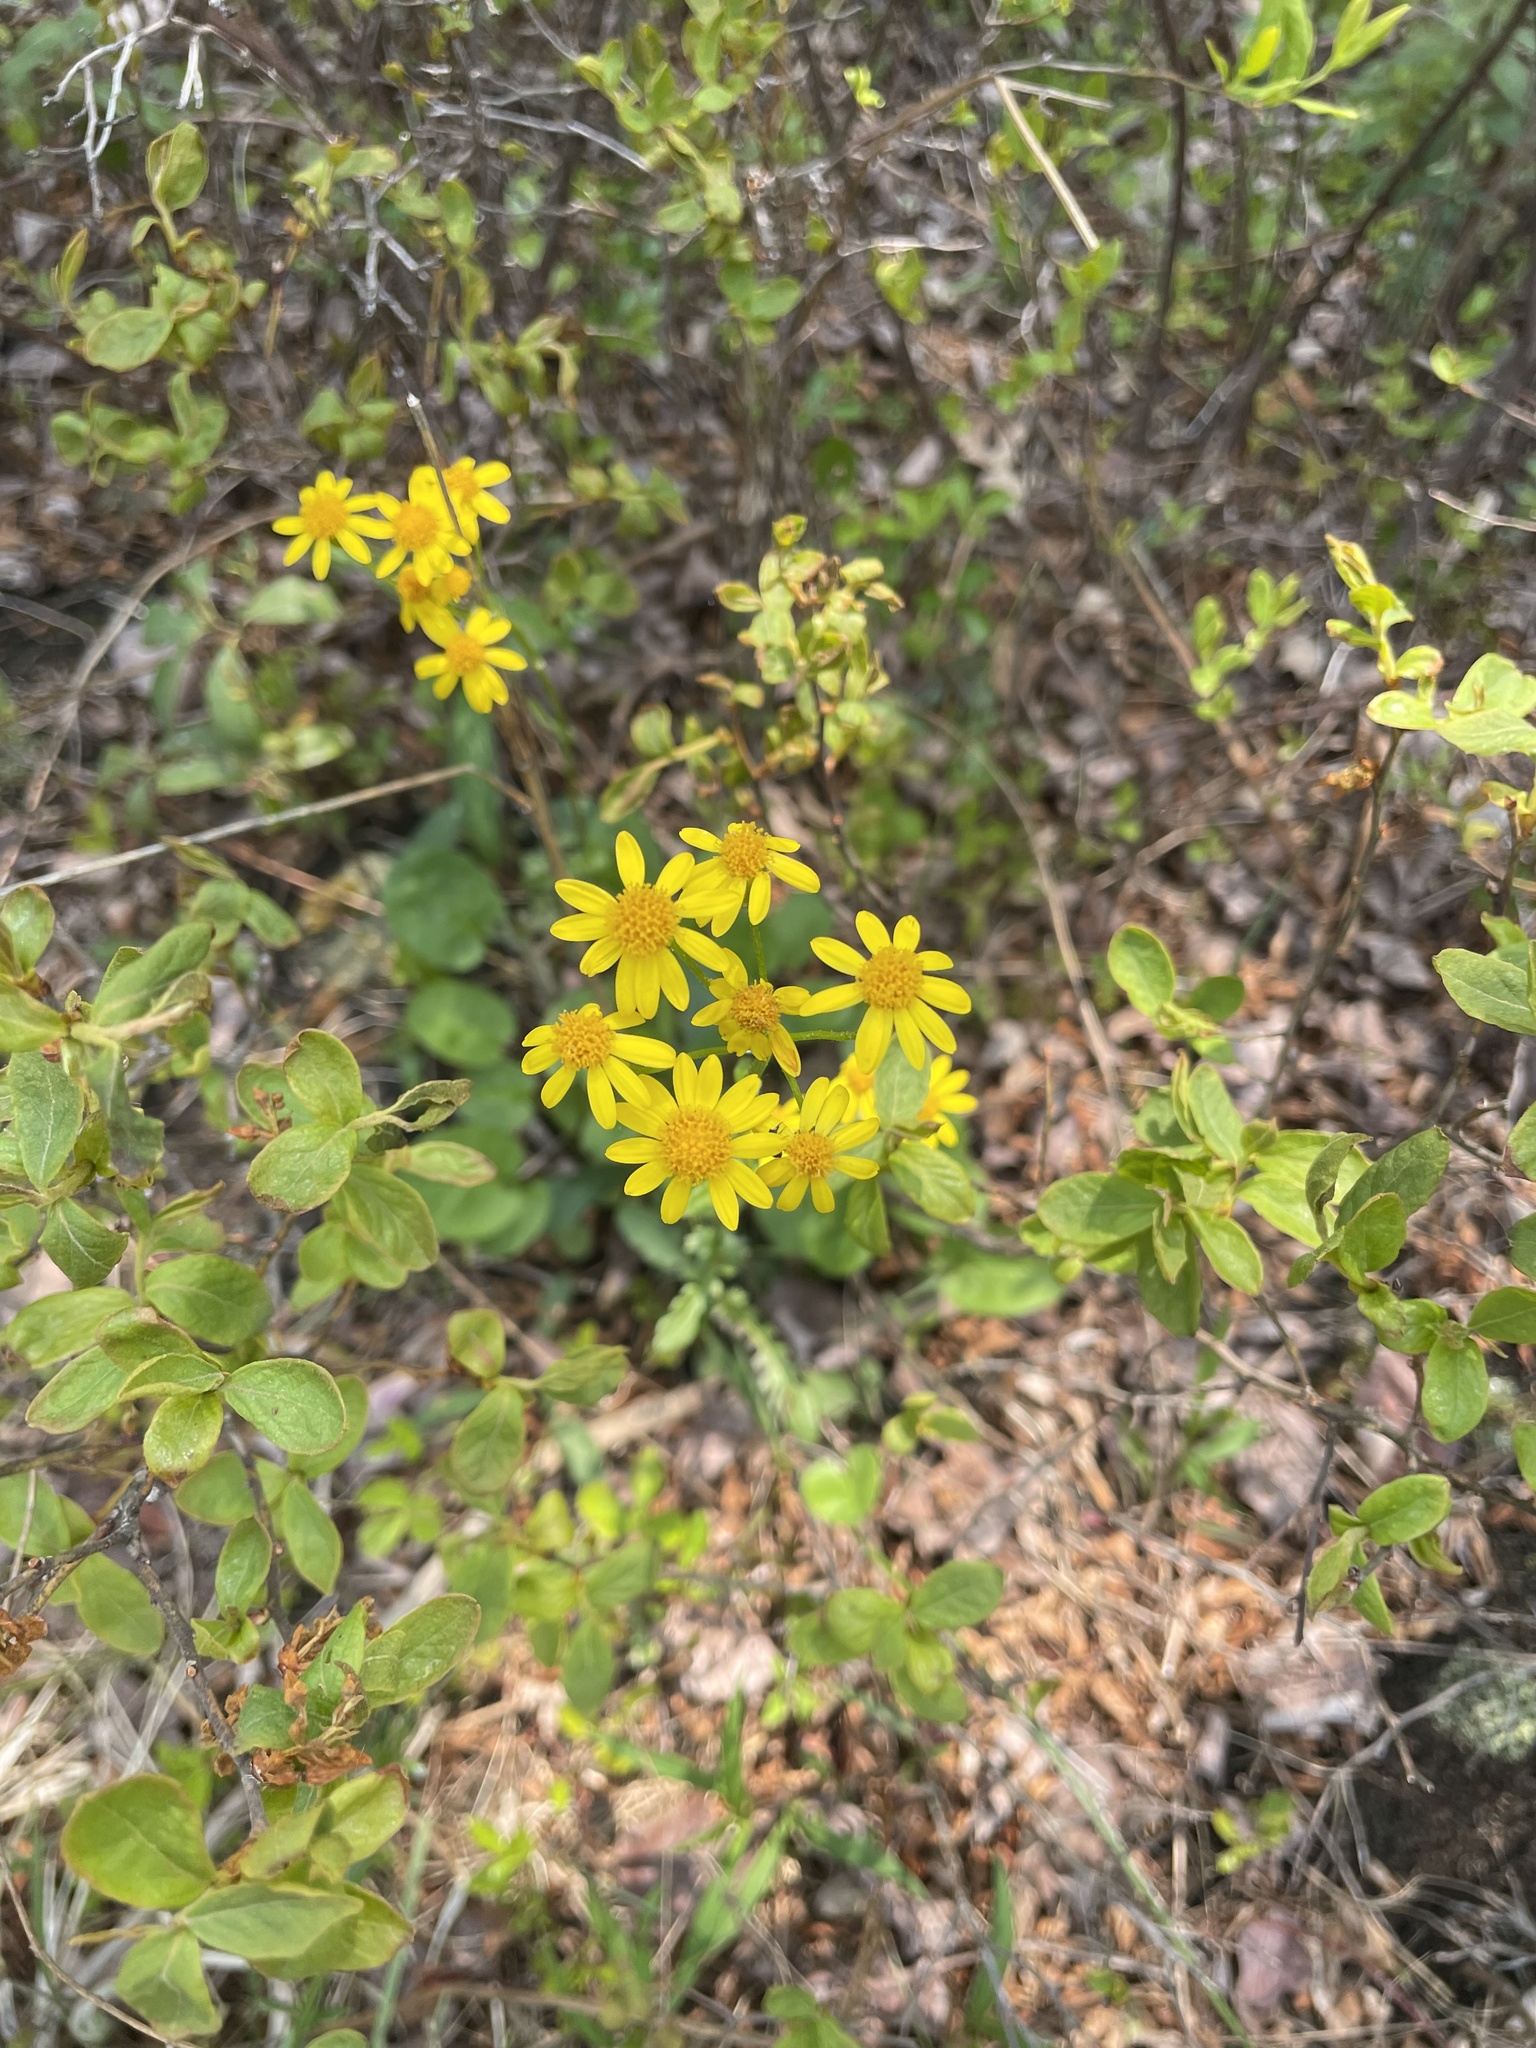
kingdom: Plantae
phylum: Tracheophyta
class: Magnoliopsida
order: Asterales
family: Asteraceae
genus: Packera
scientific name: Packera aurea
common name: Golden groundsel
